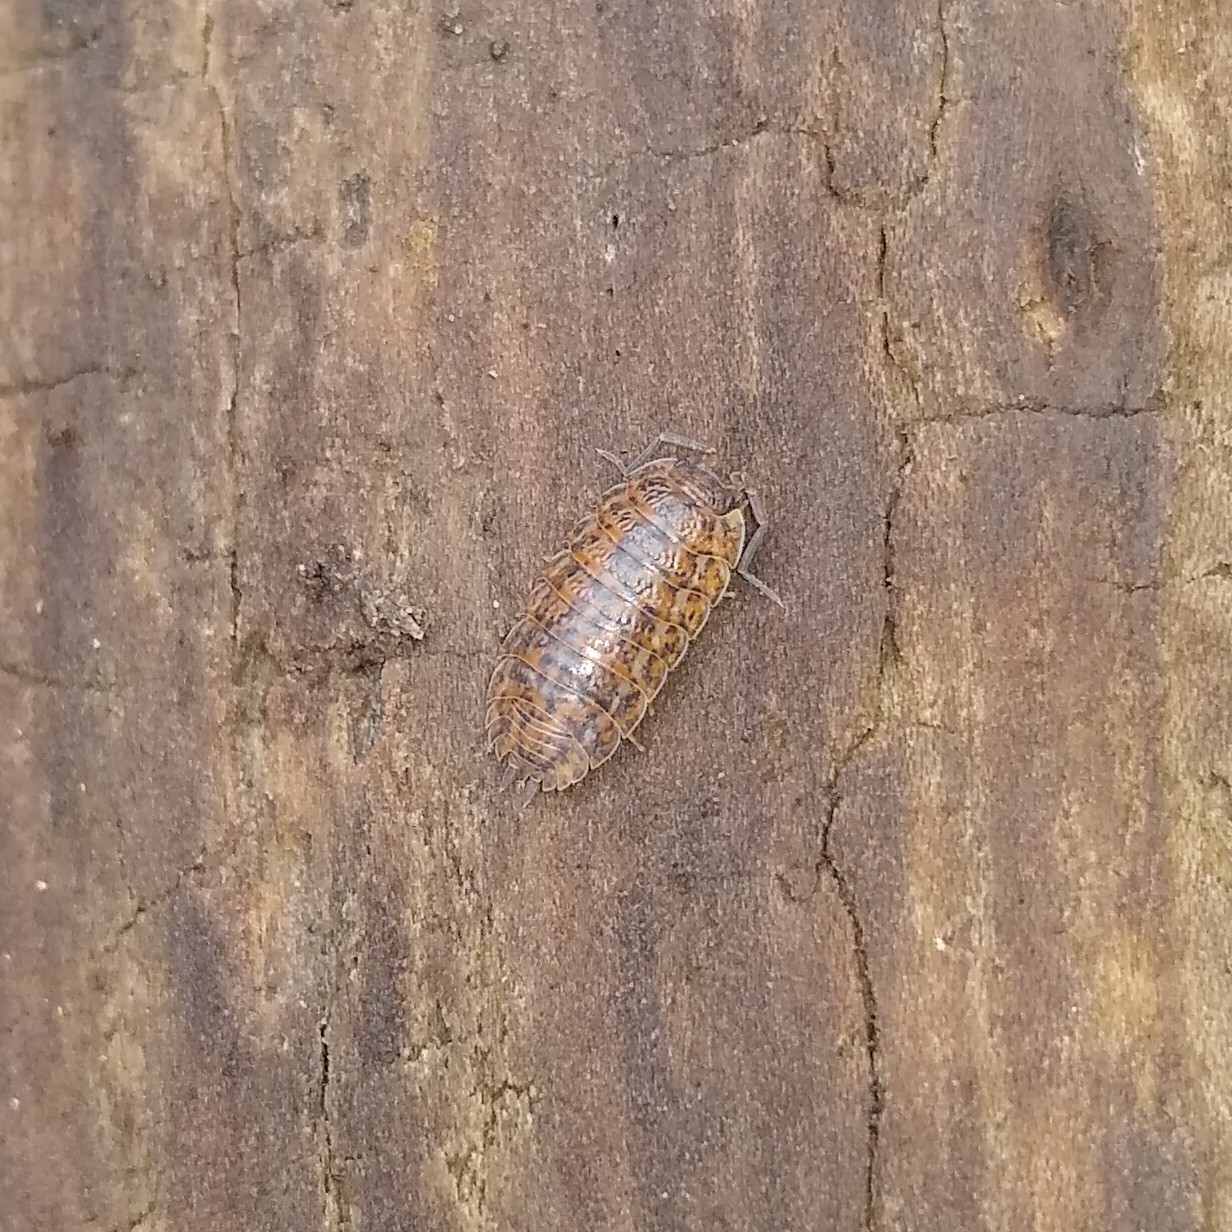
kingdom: Animalia
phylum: Arthropoda
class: Malacostraca
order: Isopoda
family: Trachelipodidae
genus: Trachelipus
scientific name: Trachelipus rathkii
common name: Isopod
